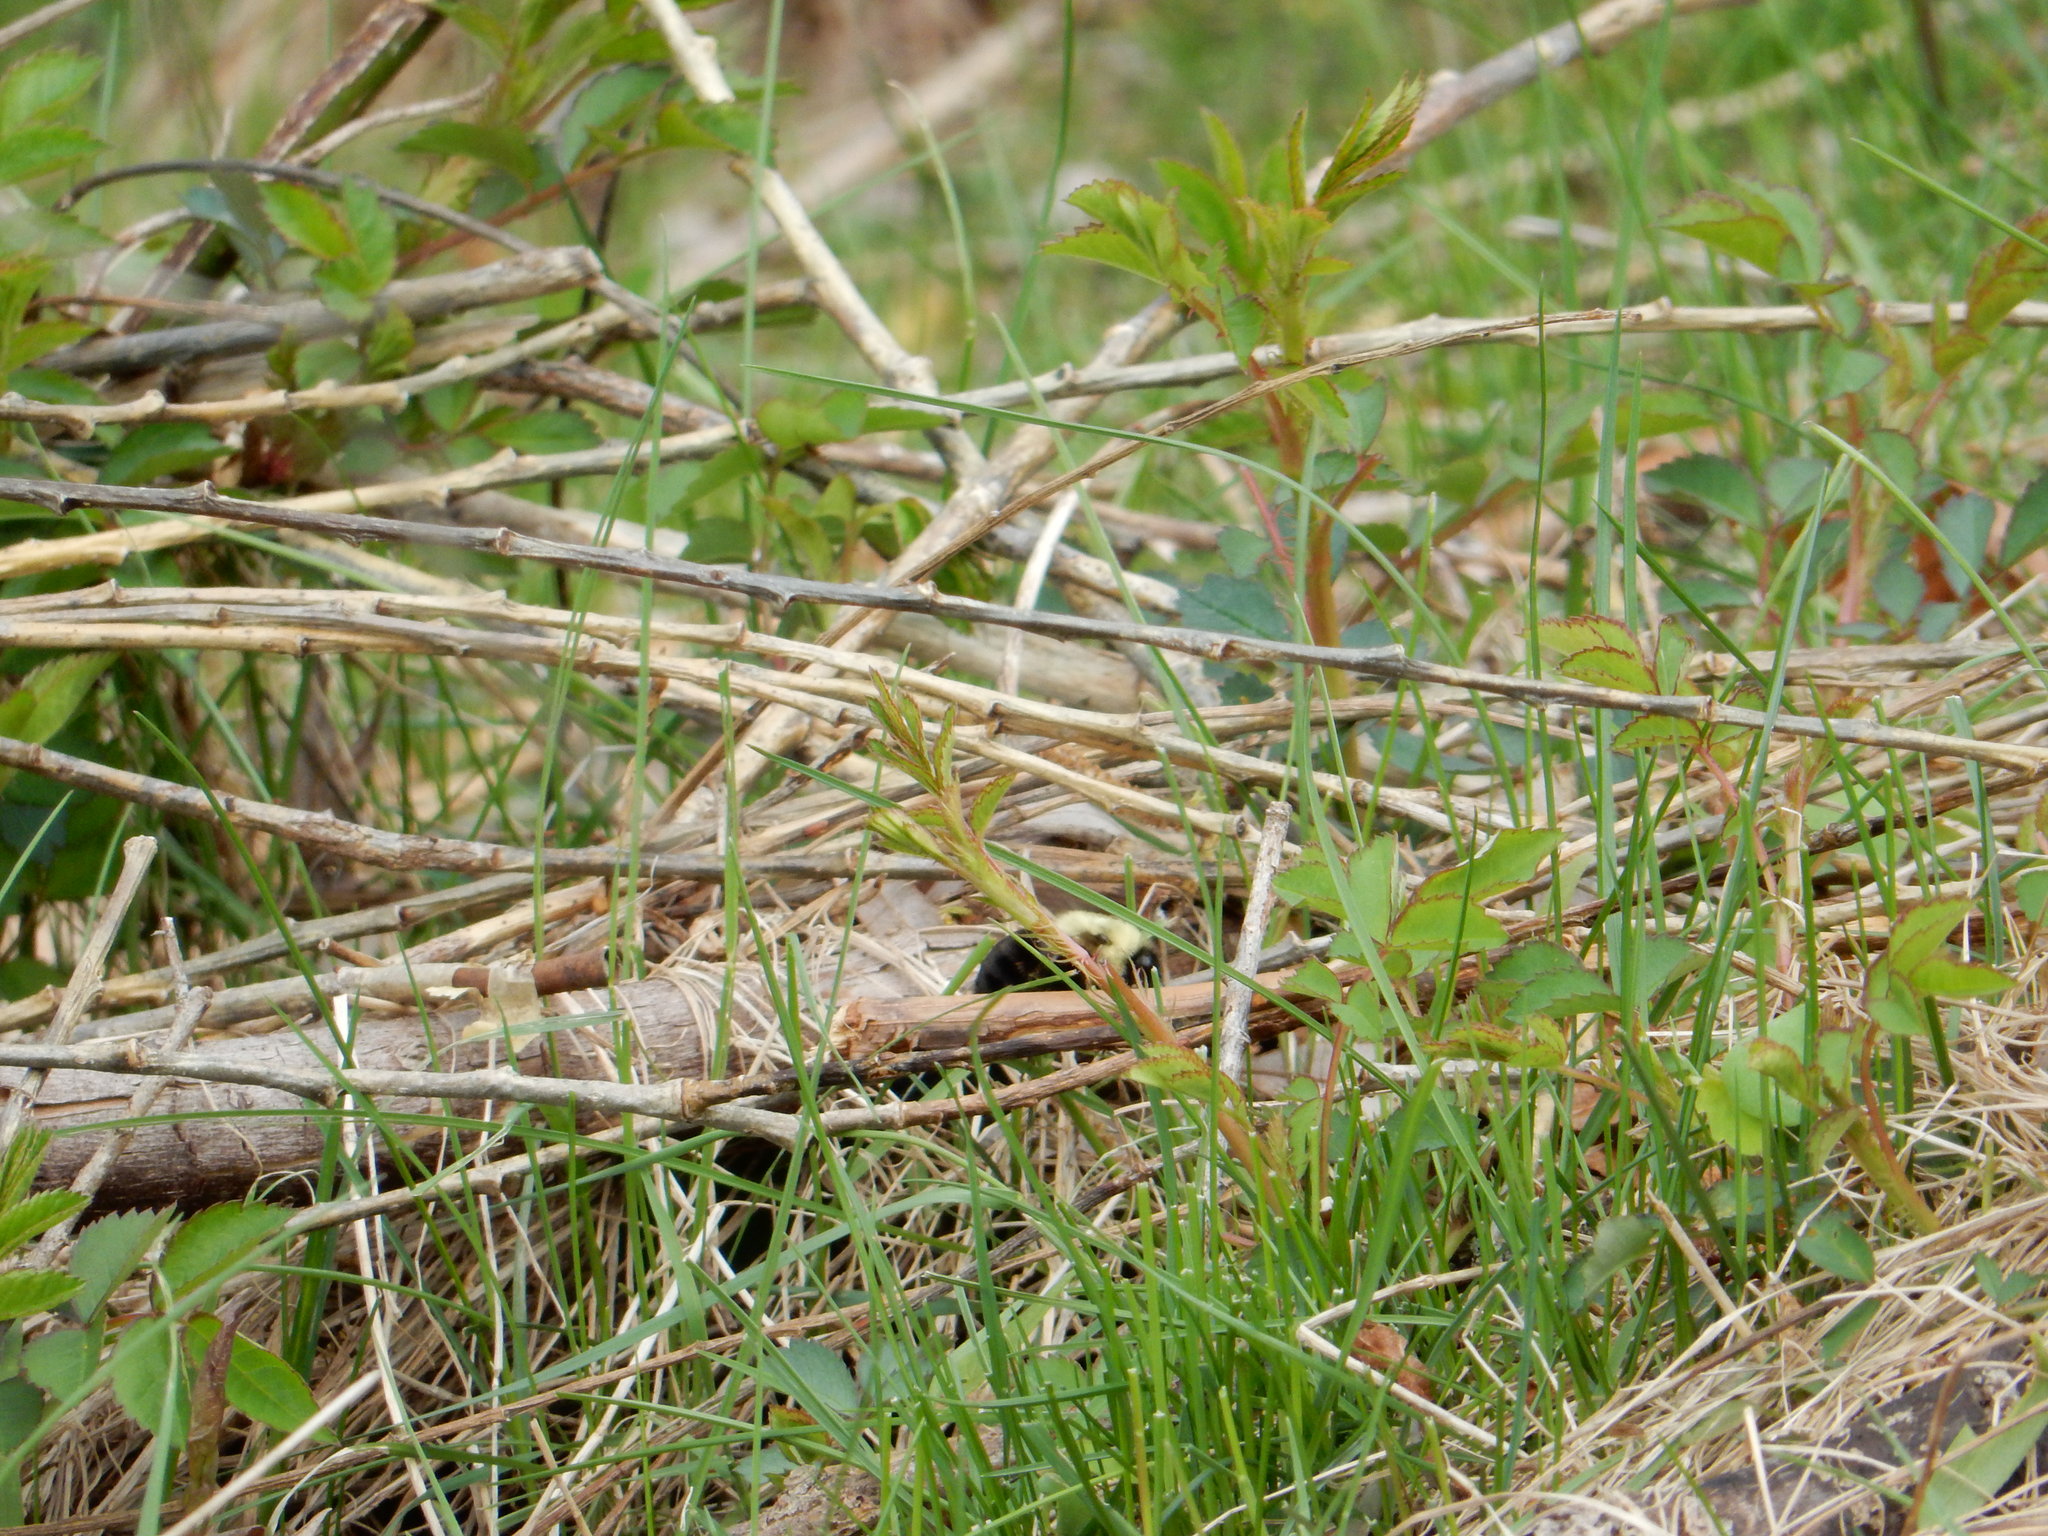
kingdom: Animalia
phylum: Arthropoda
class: Insecta
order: Hymenoptera
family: Apidae
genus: Bombus
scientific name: Bombus impatiens
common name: Common eastern bumble bee
